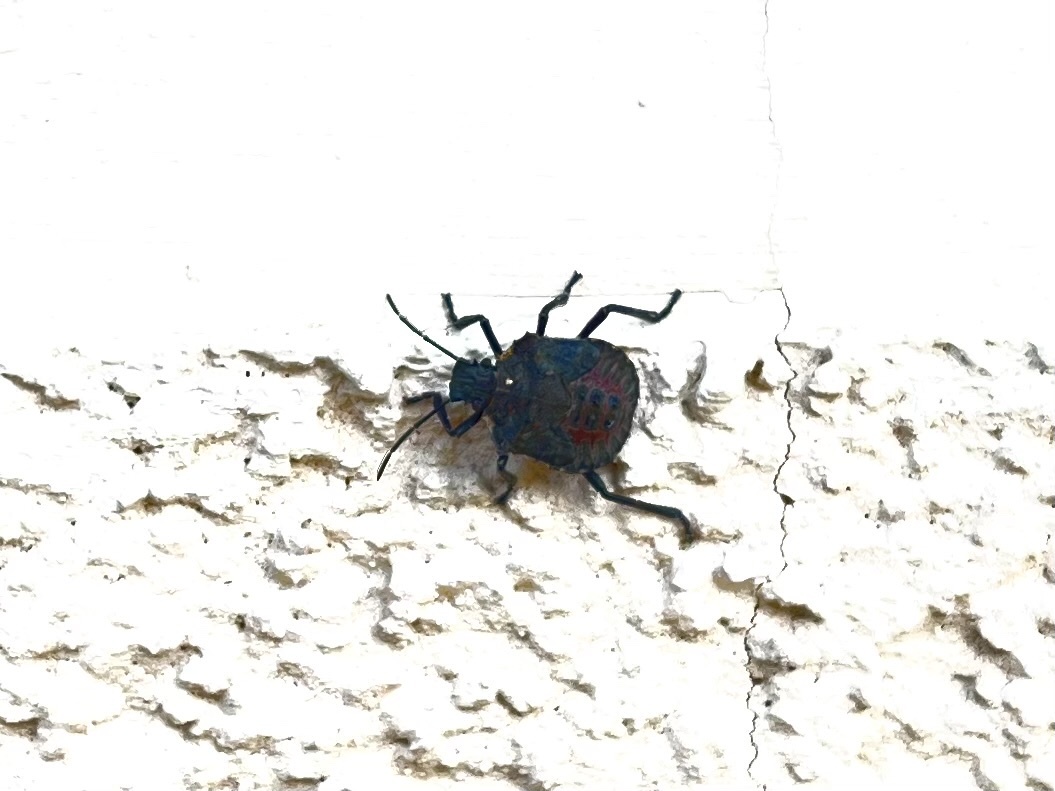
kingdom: Animalia
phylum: Arthropoda
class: Insecta
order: Hemiptera
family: Pentatomidae
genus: Halyomorpha
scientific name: Halyomorpha halys
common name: Brown marmorated stink bug
